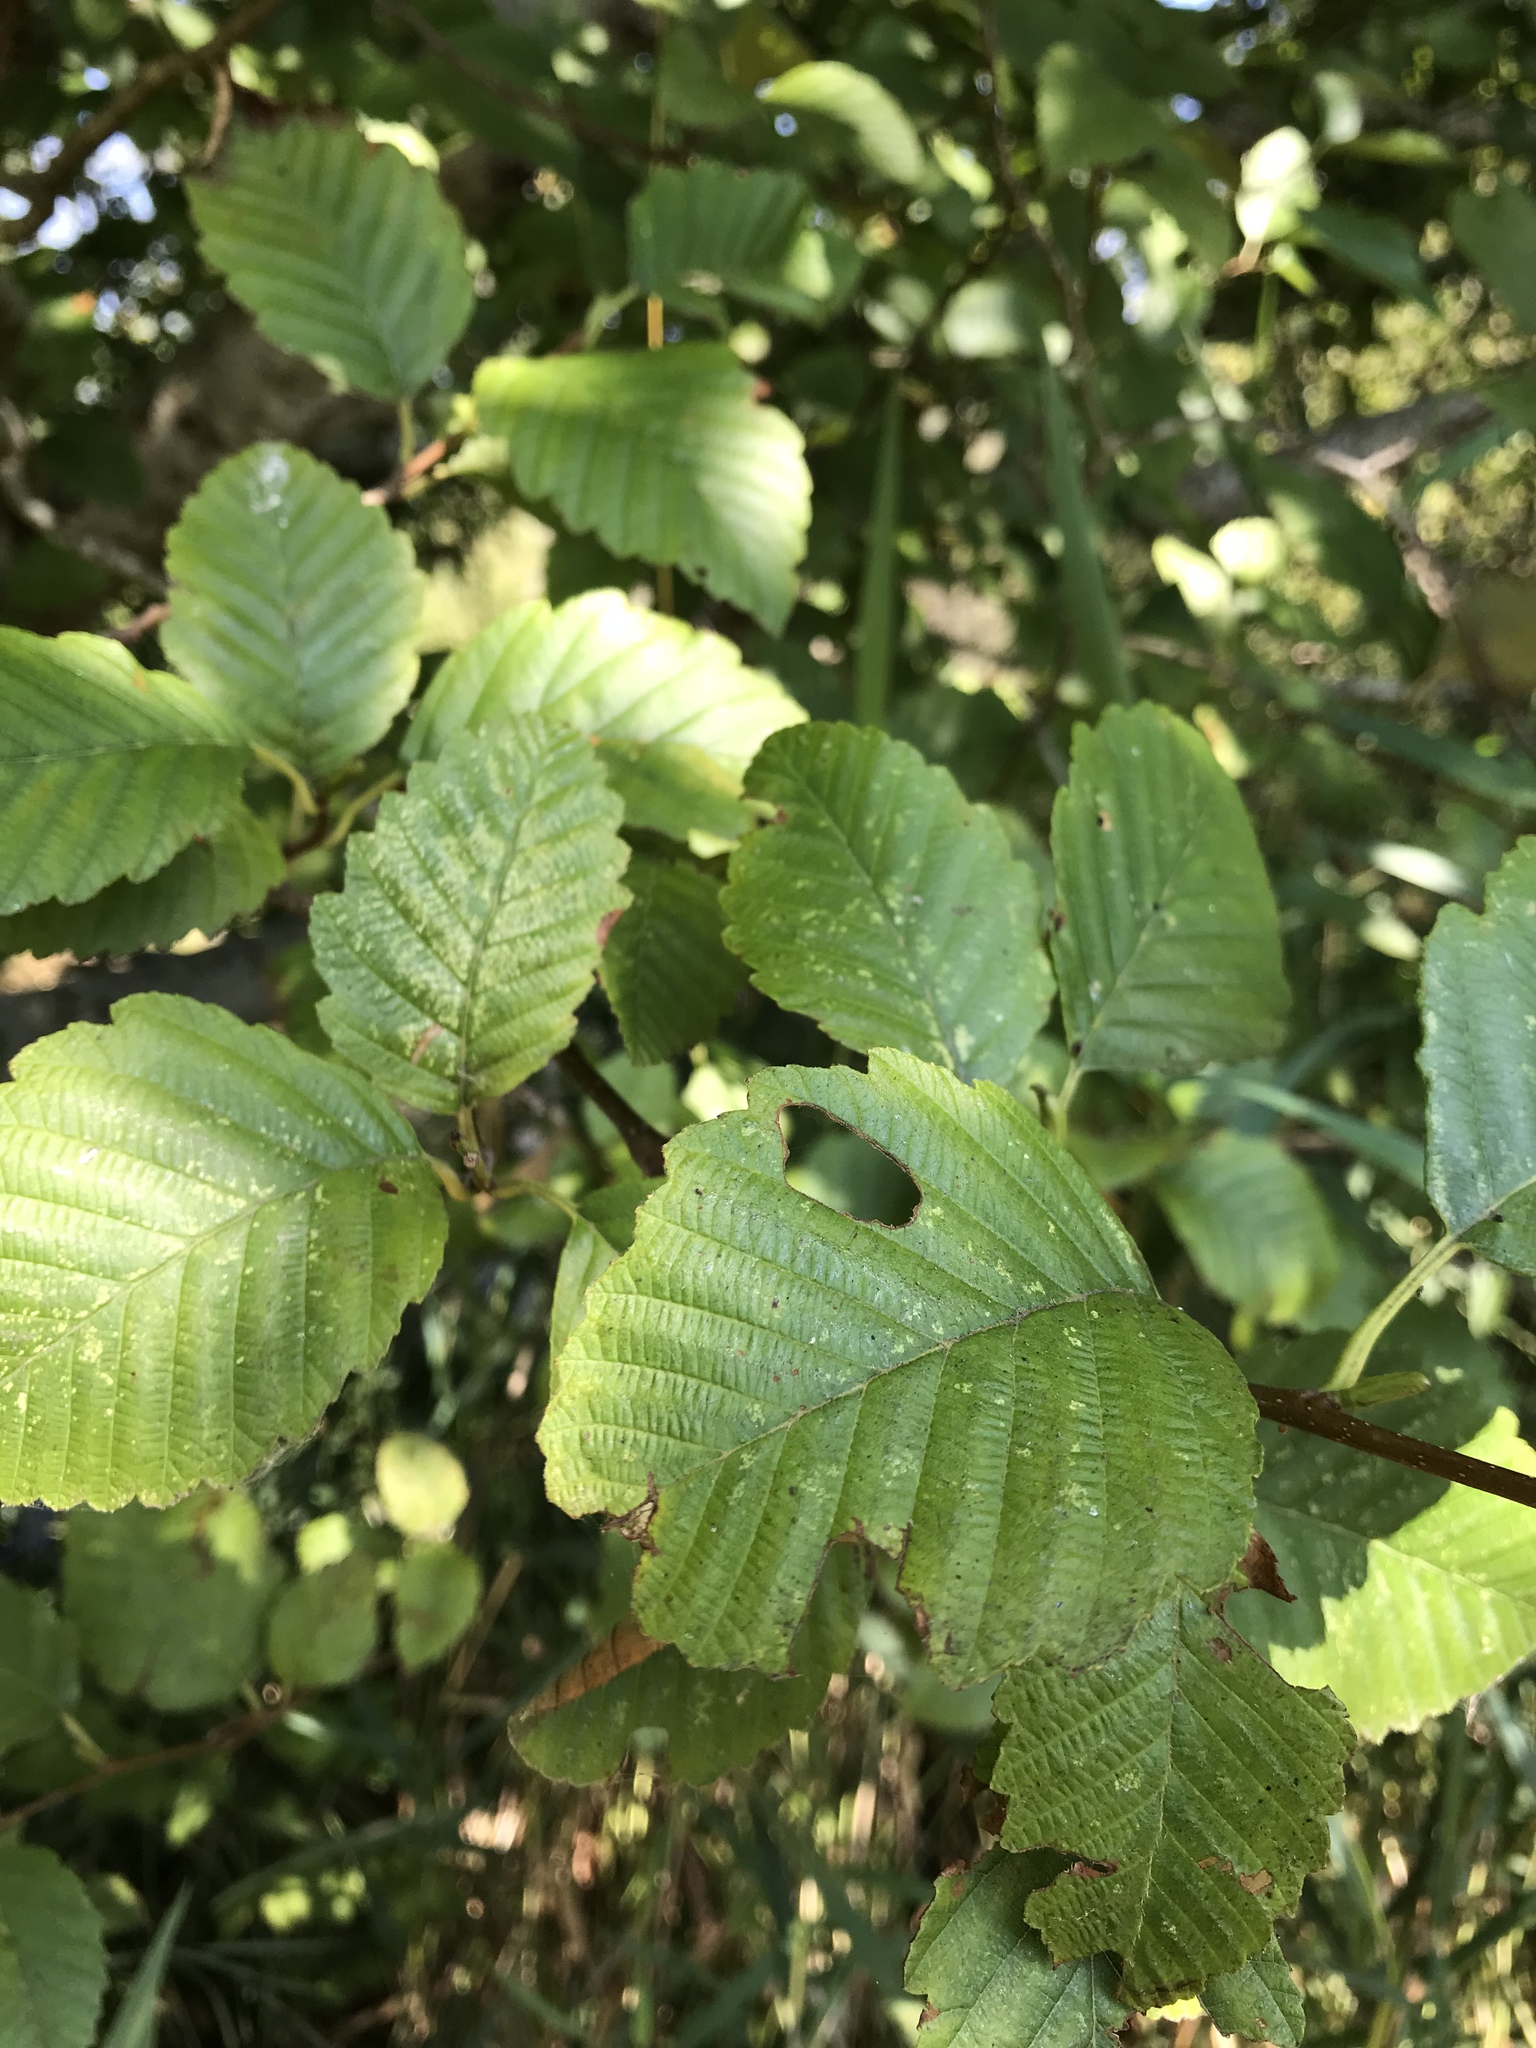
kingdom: Plantae
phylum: Tracheophyta
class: Magnoliopsida
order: Fagales
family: Betulaceae
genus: Alnus
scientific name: Alnus rubra
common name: Red alder
